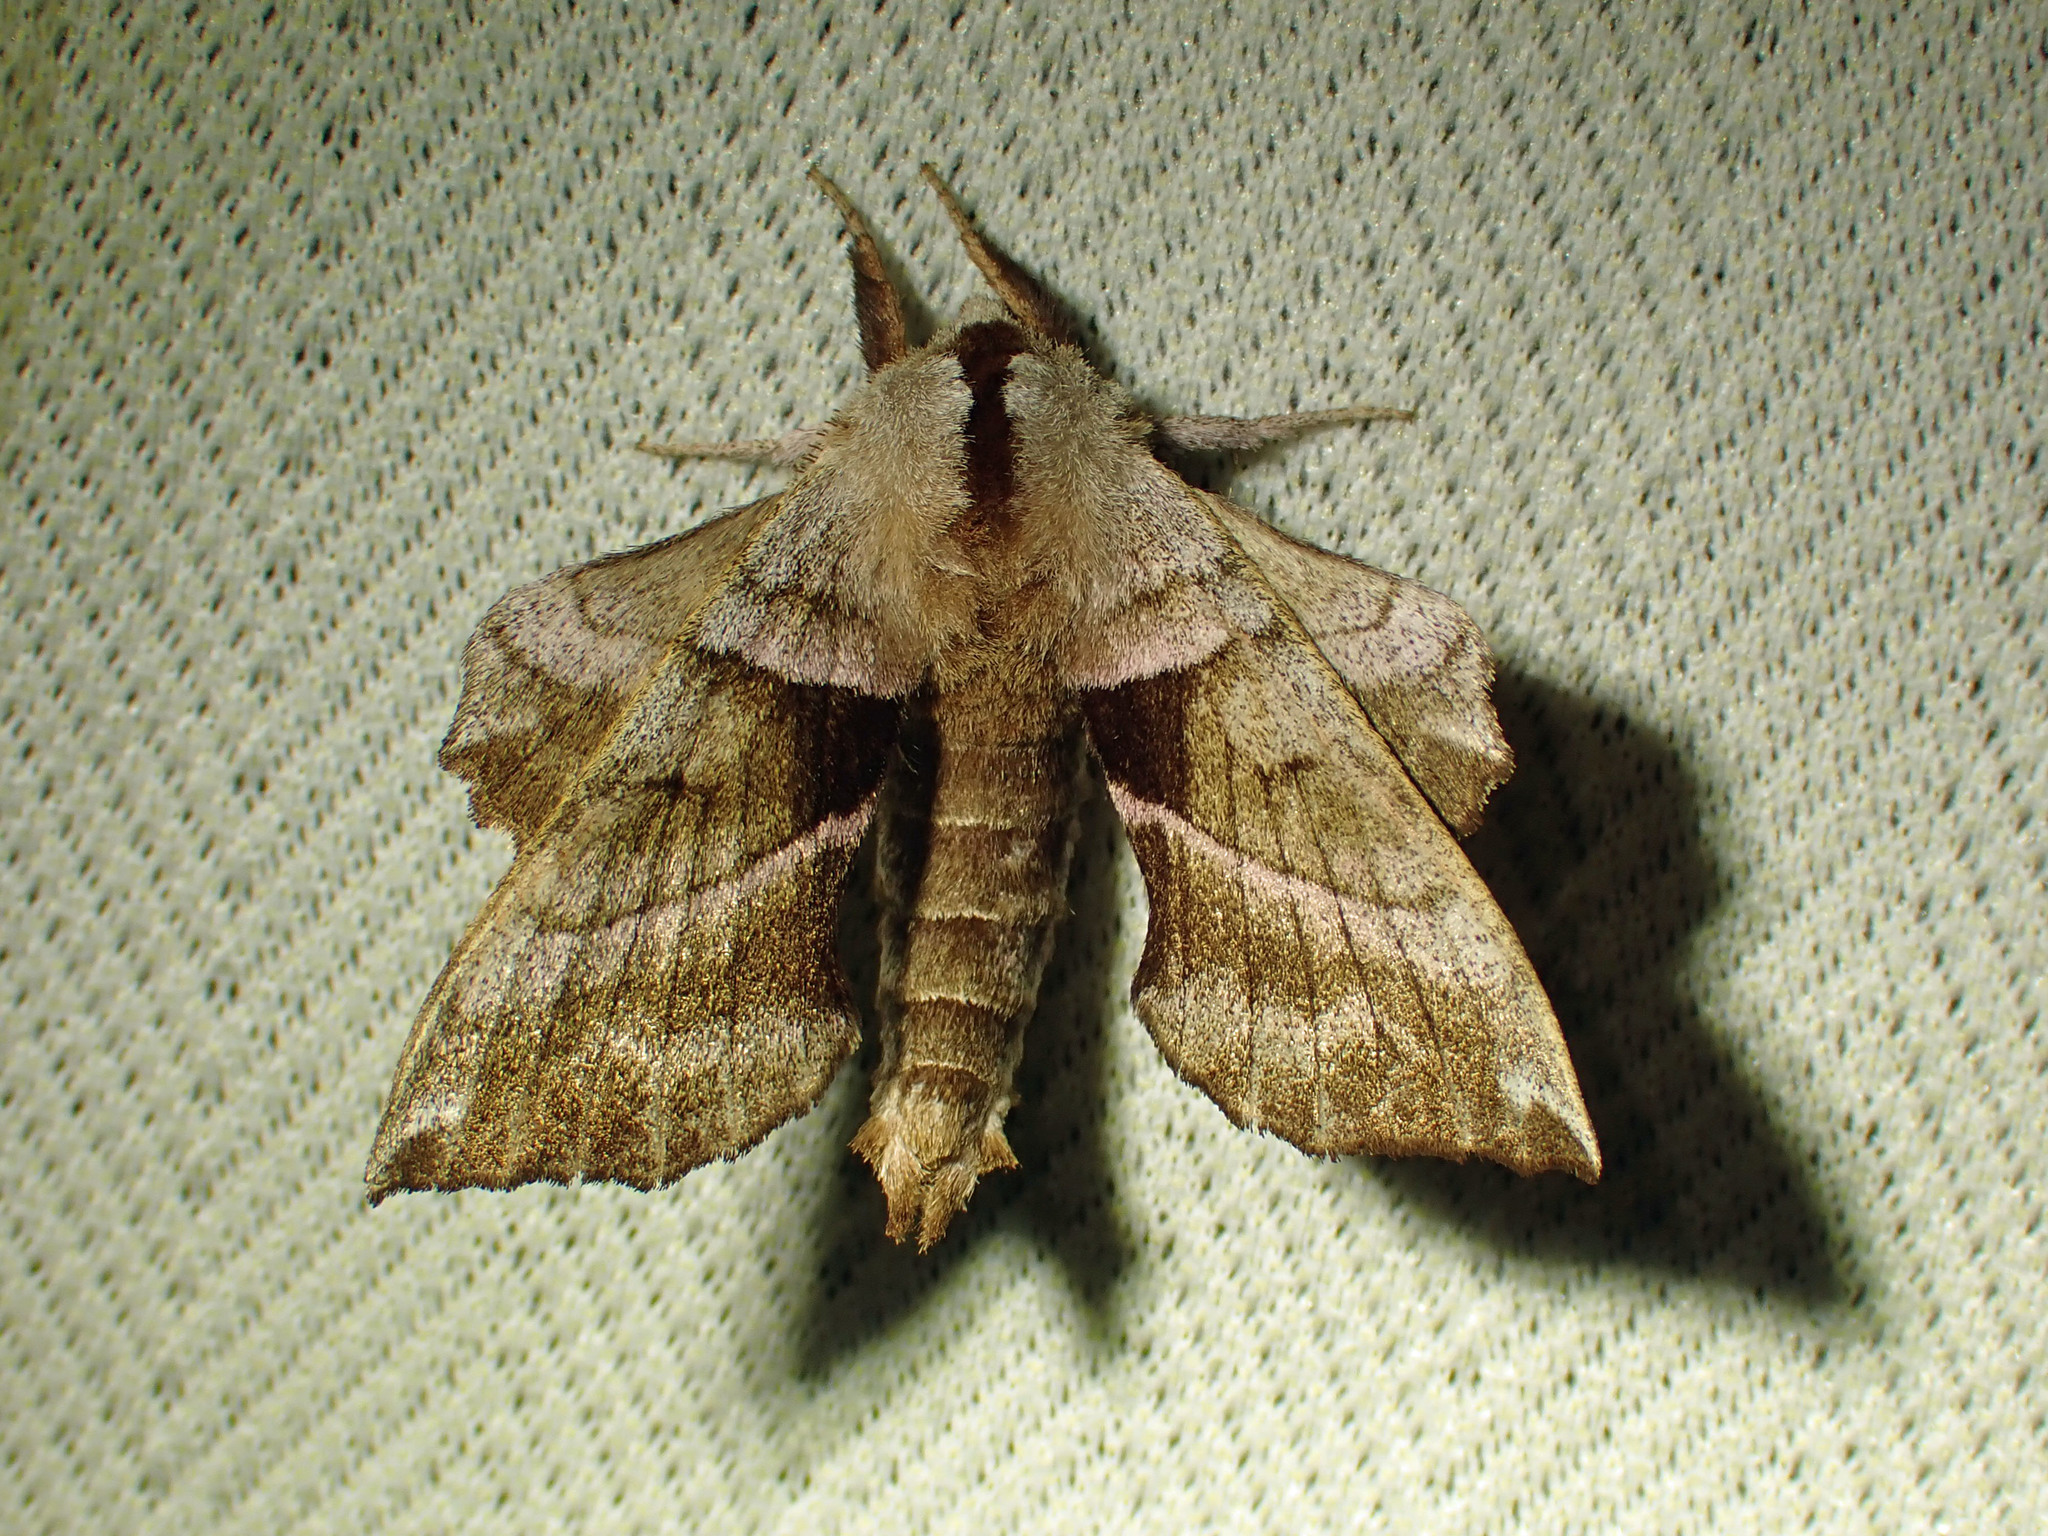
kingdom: Animalia
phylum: Arthropoda
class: Insecta
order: Lepidoptera
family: Sphingidae
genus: Amorpha
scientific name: Amorpha juglandis
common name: Walnut sphinx
